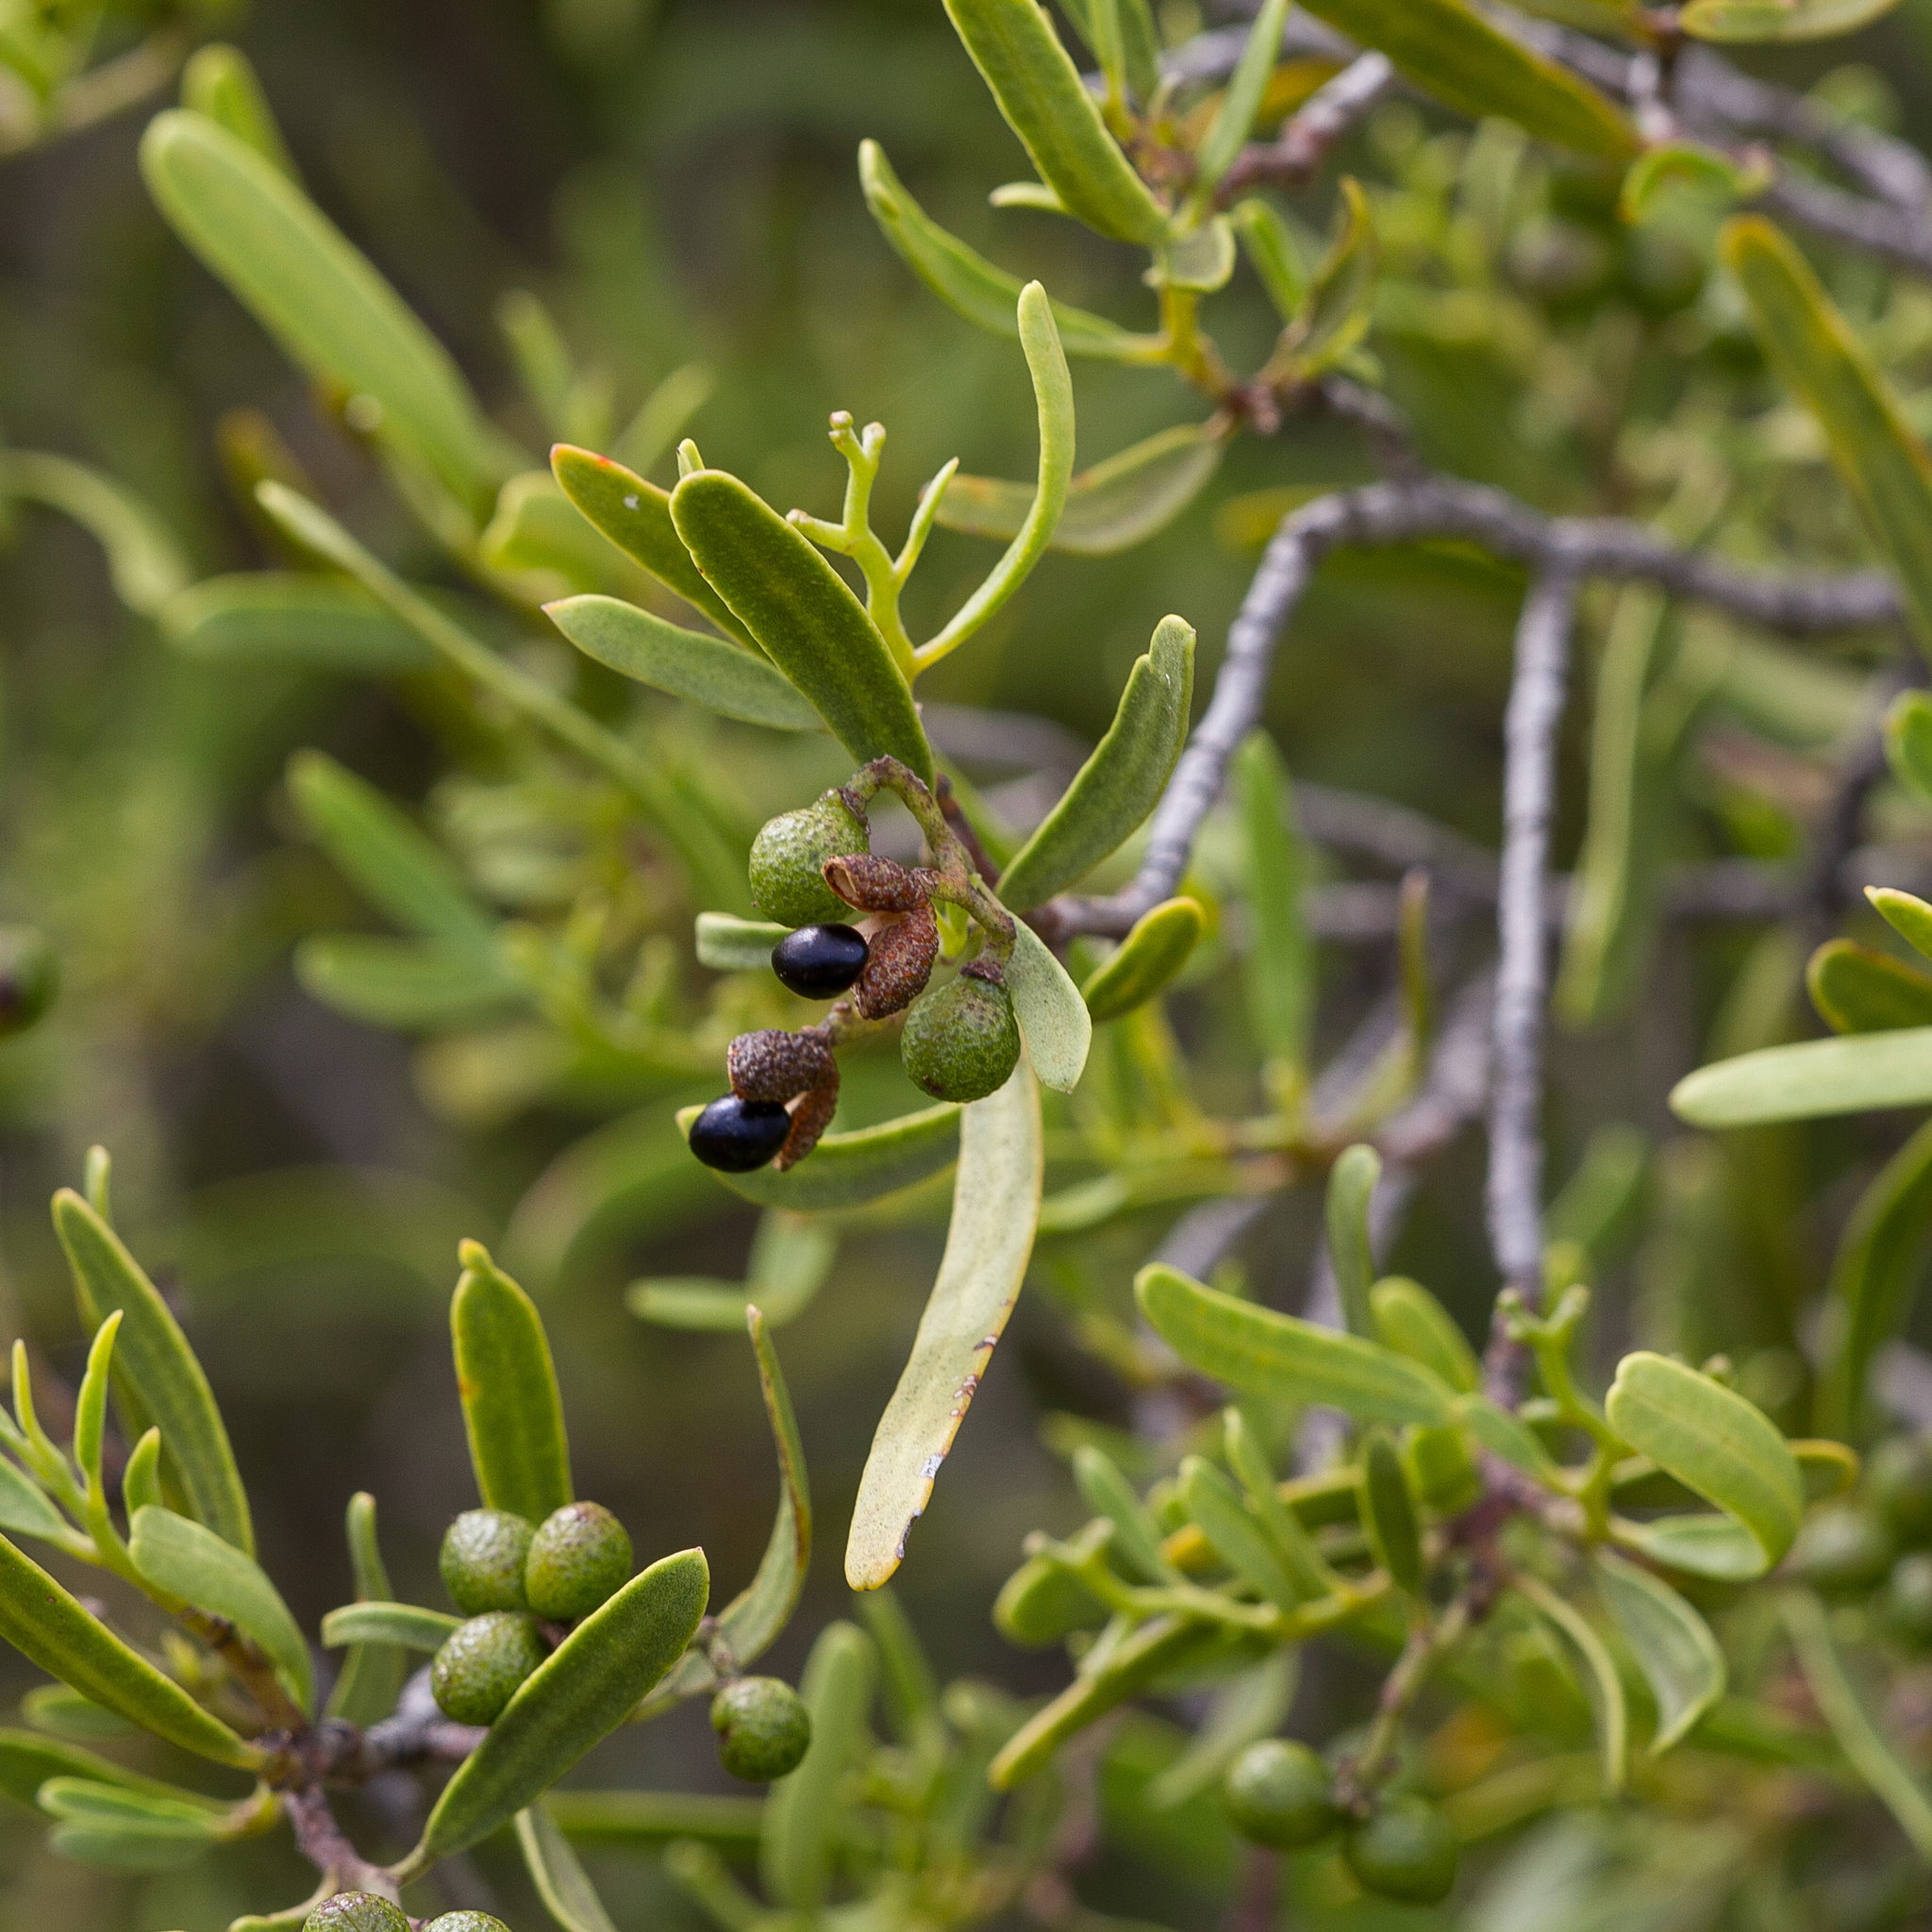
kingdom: Plantae
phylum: Tracheophyta
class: Magnoliopsida
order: Sapindales
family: Rutaceae
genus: Geijera
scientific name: Geijera linearifolia
